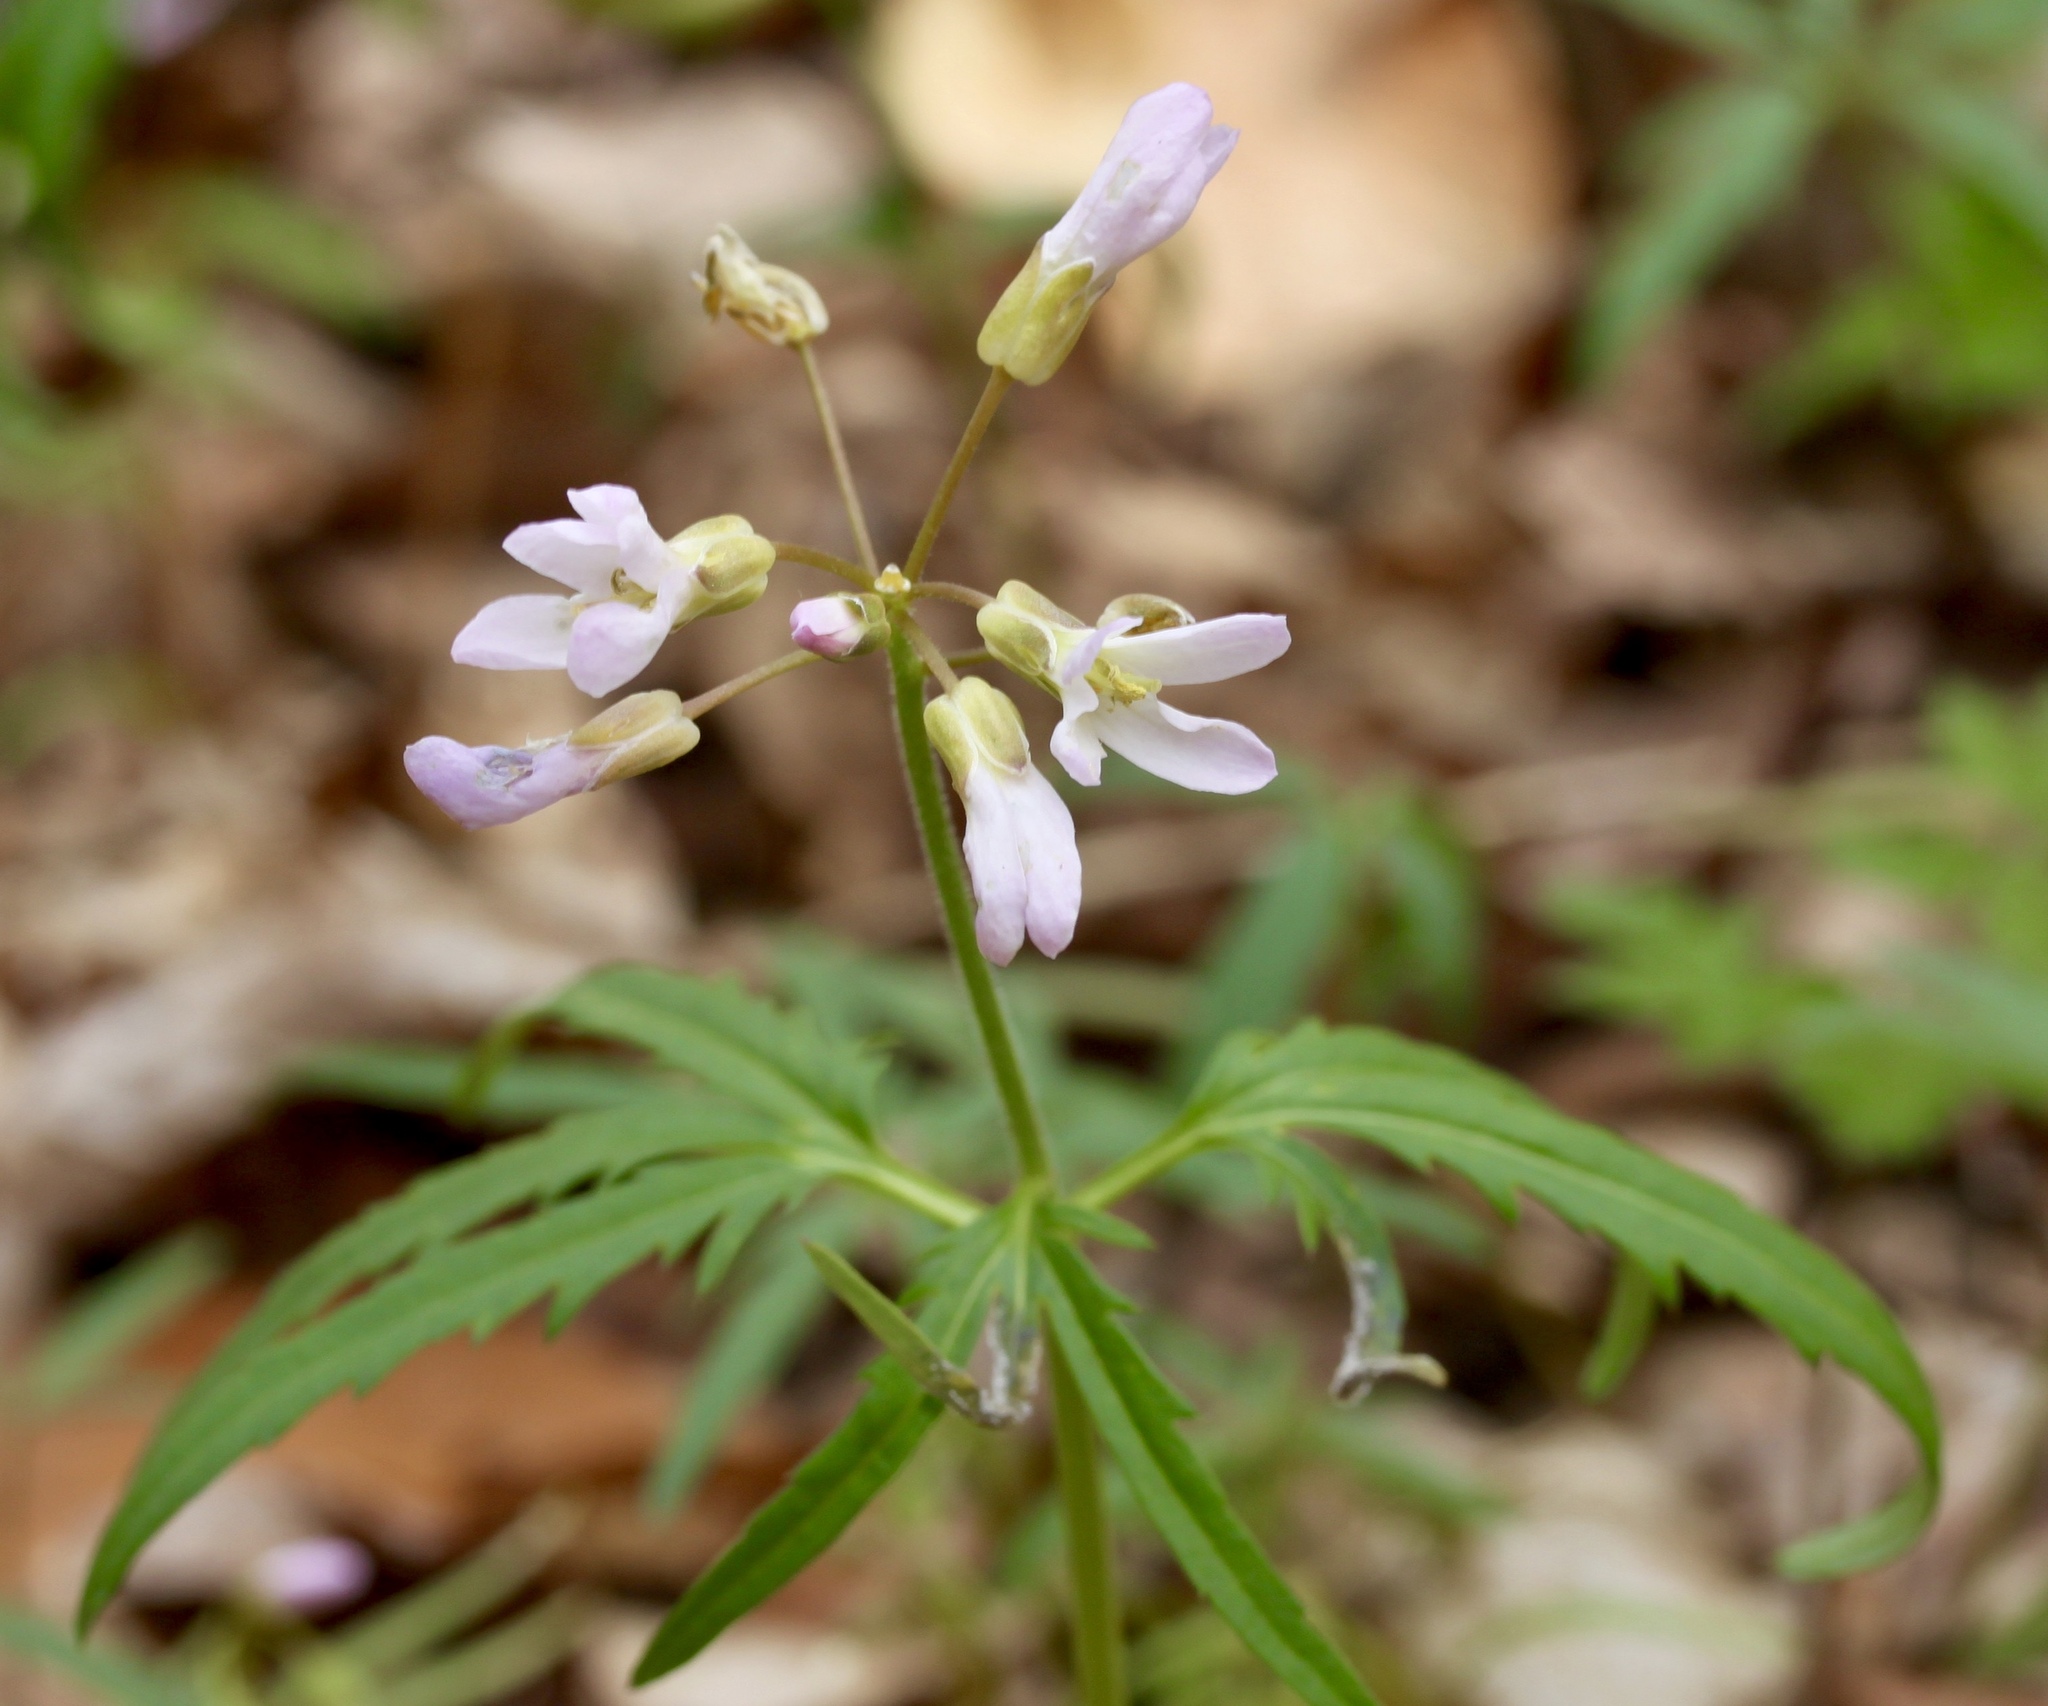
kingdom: Plantae
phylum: Tracheophyta
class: Magnoliopsida
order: Brassicales
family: Brassicaceae
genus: Cardamine
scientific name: Cardamine concatenata
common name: Cut-leaf toothcup
